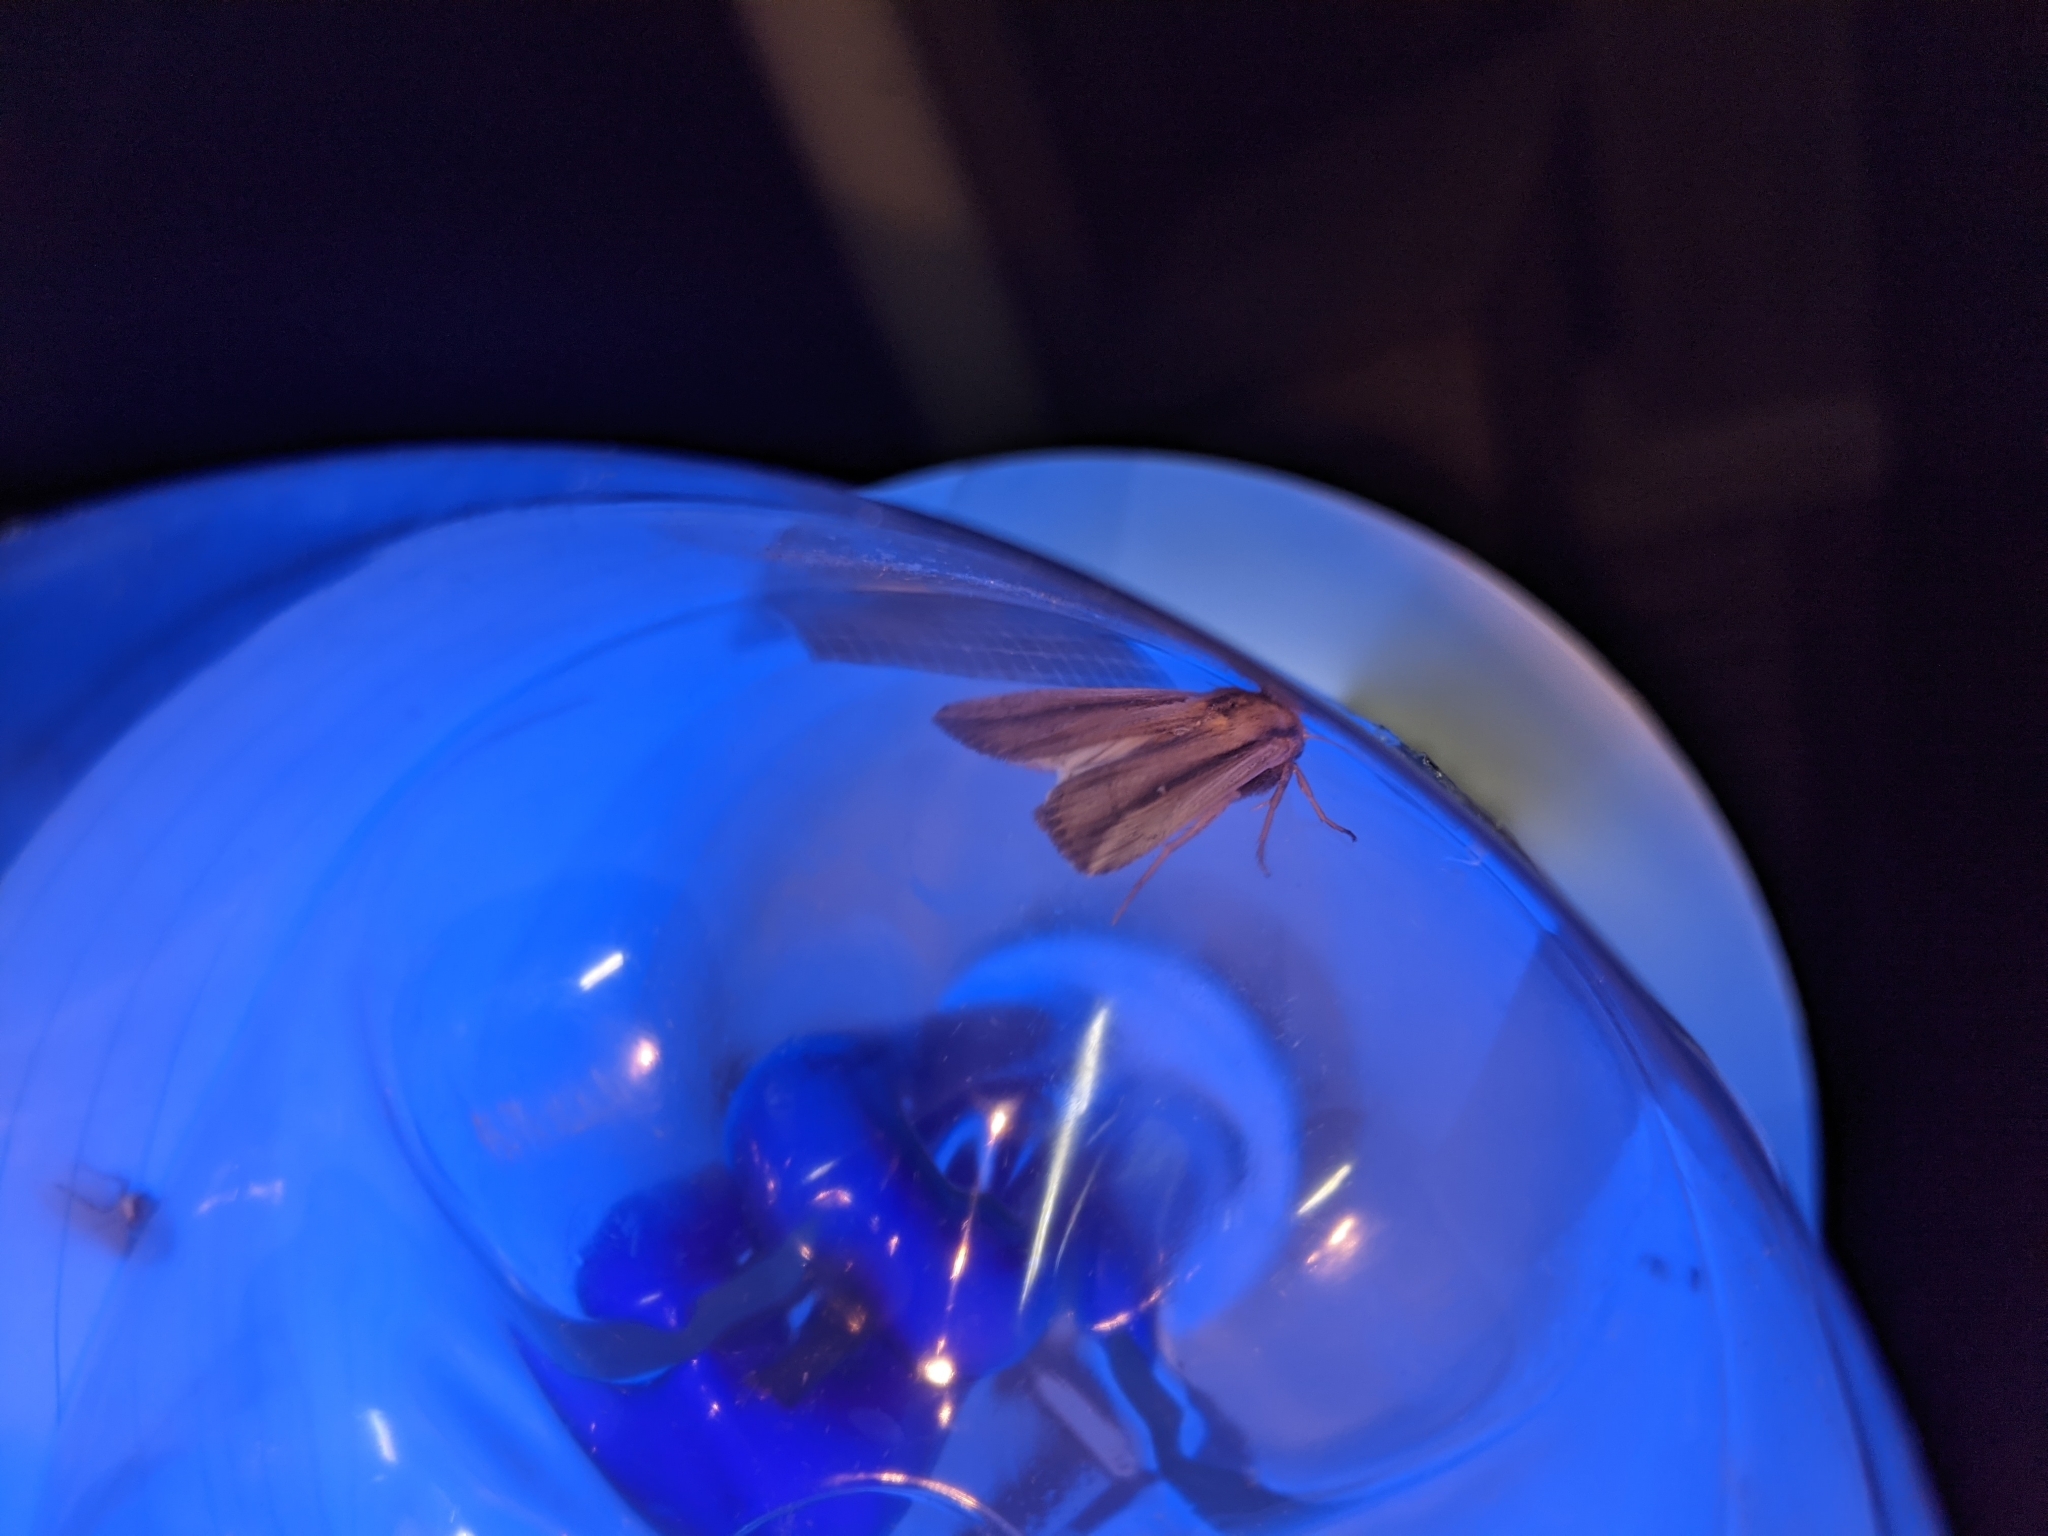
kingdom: Animalia
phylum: Arthropoda
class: Insecta
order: Lepidoptera
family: Noctuidae
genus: Leucania
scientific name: Leucania stenographa
